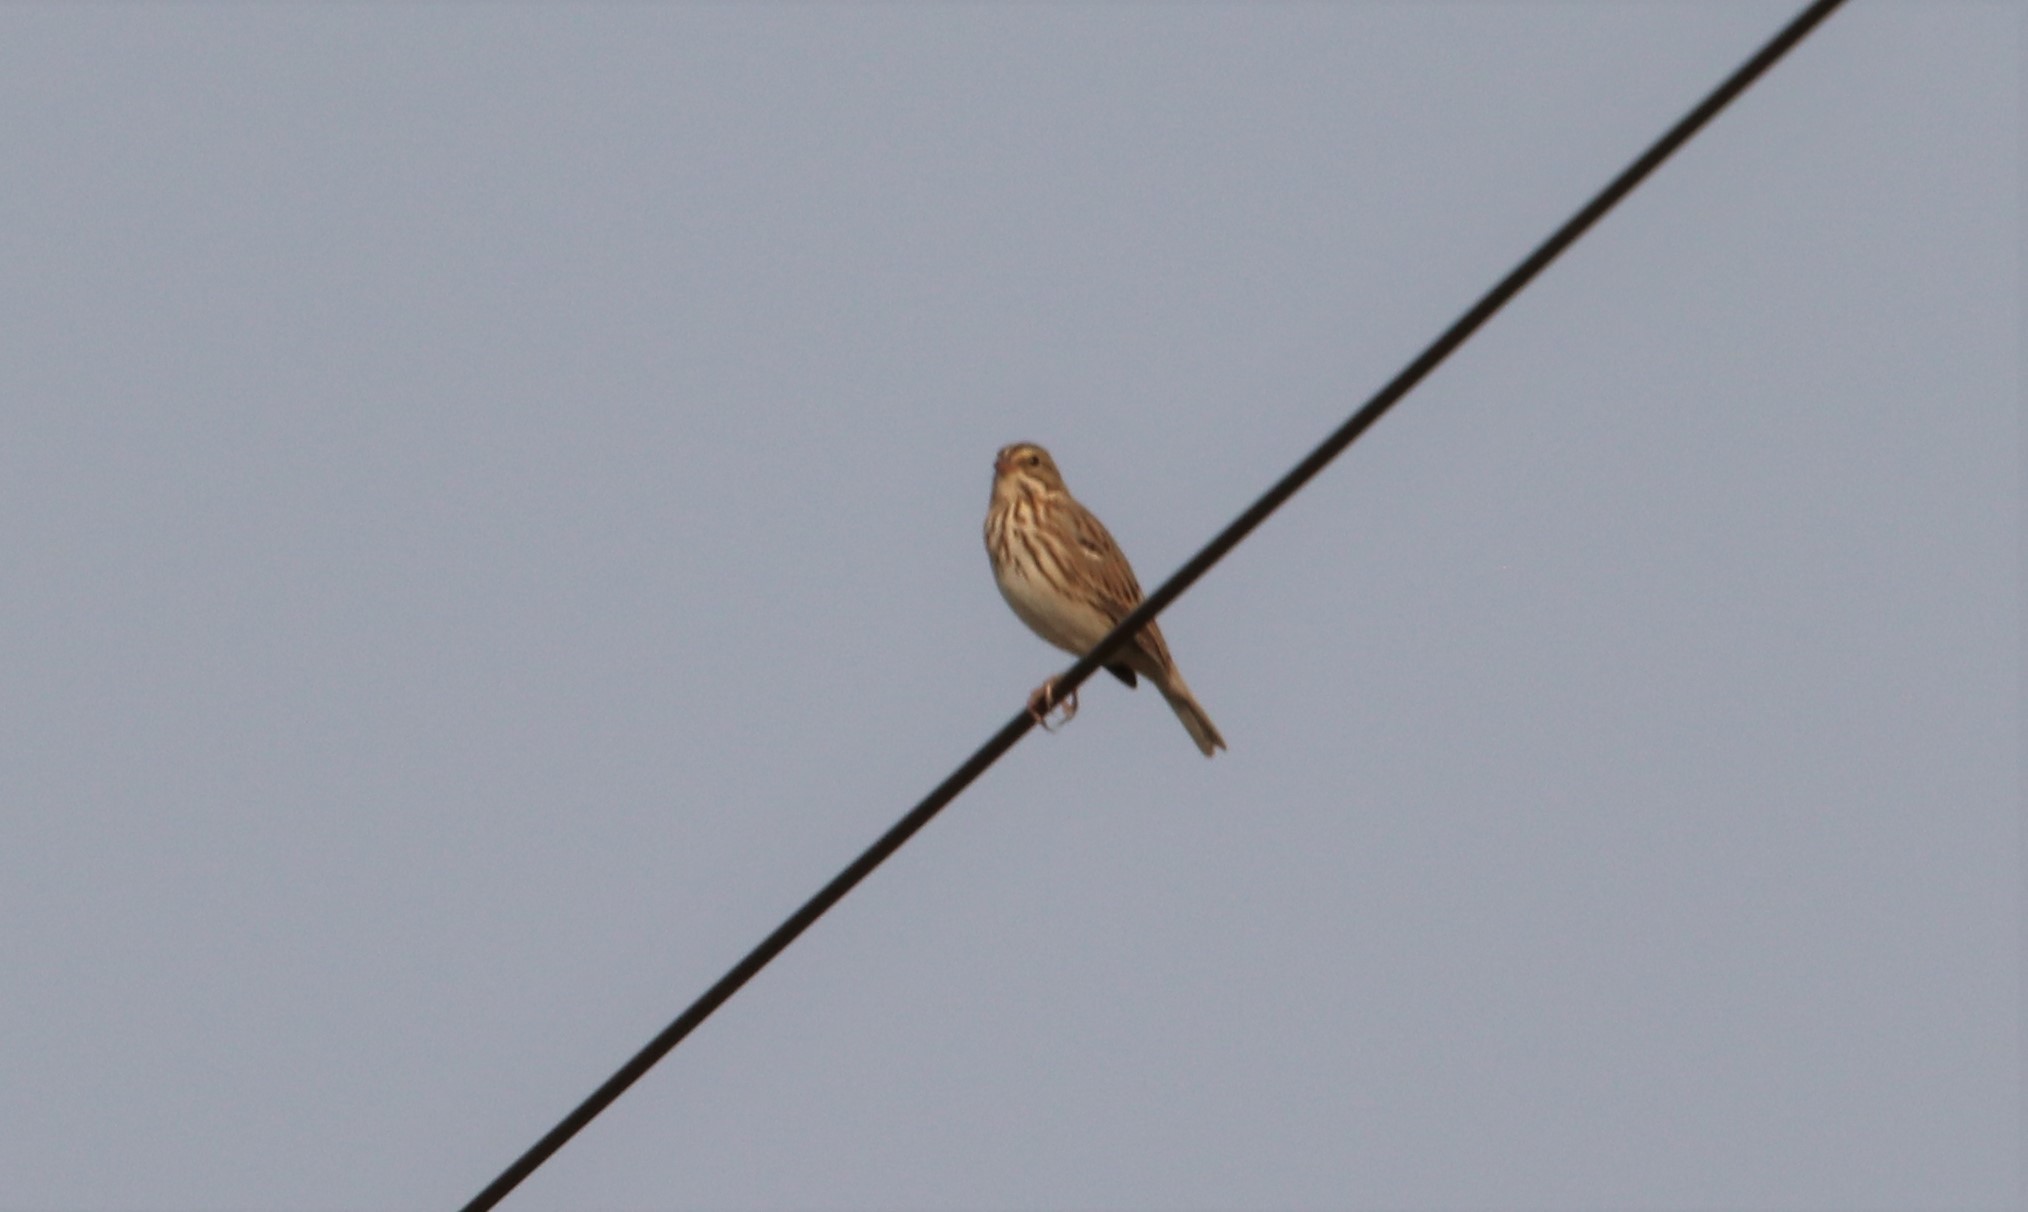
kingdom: Animalia
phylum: Chordata
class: Aves
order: Passeriformes
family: Passerellidae
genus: Passerculus
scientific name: Passerculus sandwichensis
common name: Savannah sparrow
